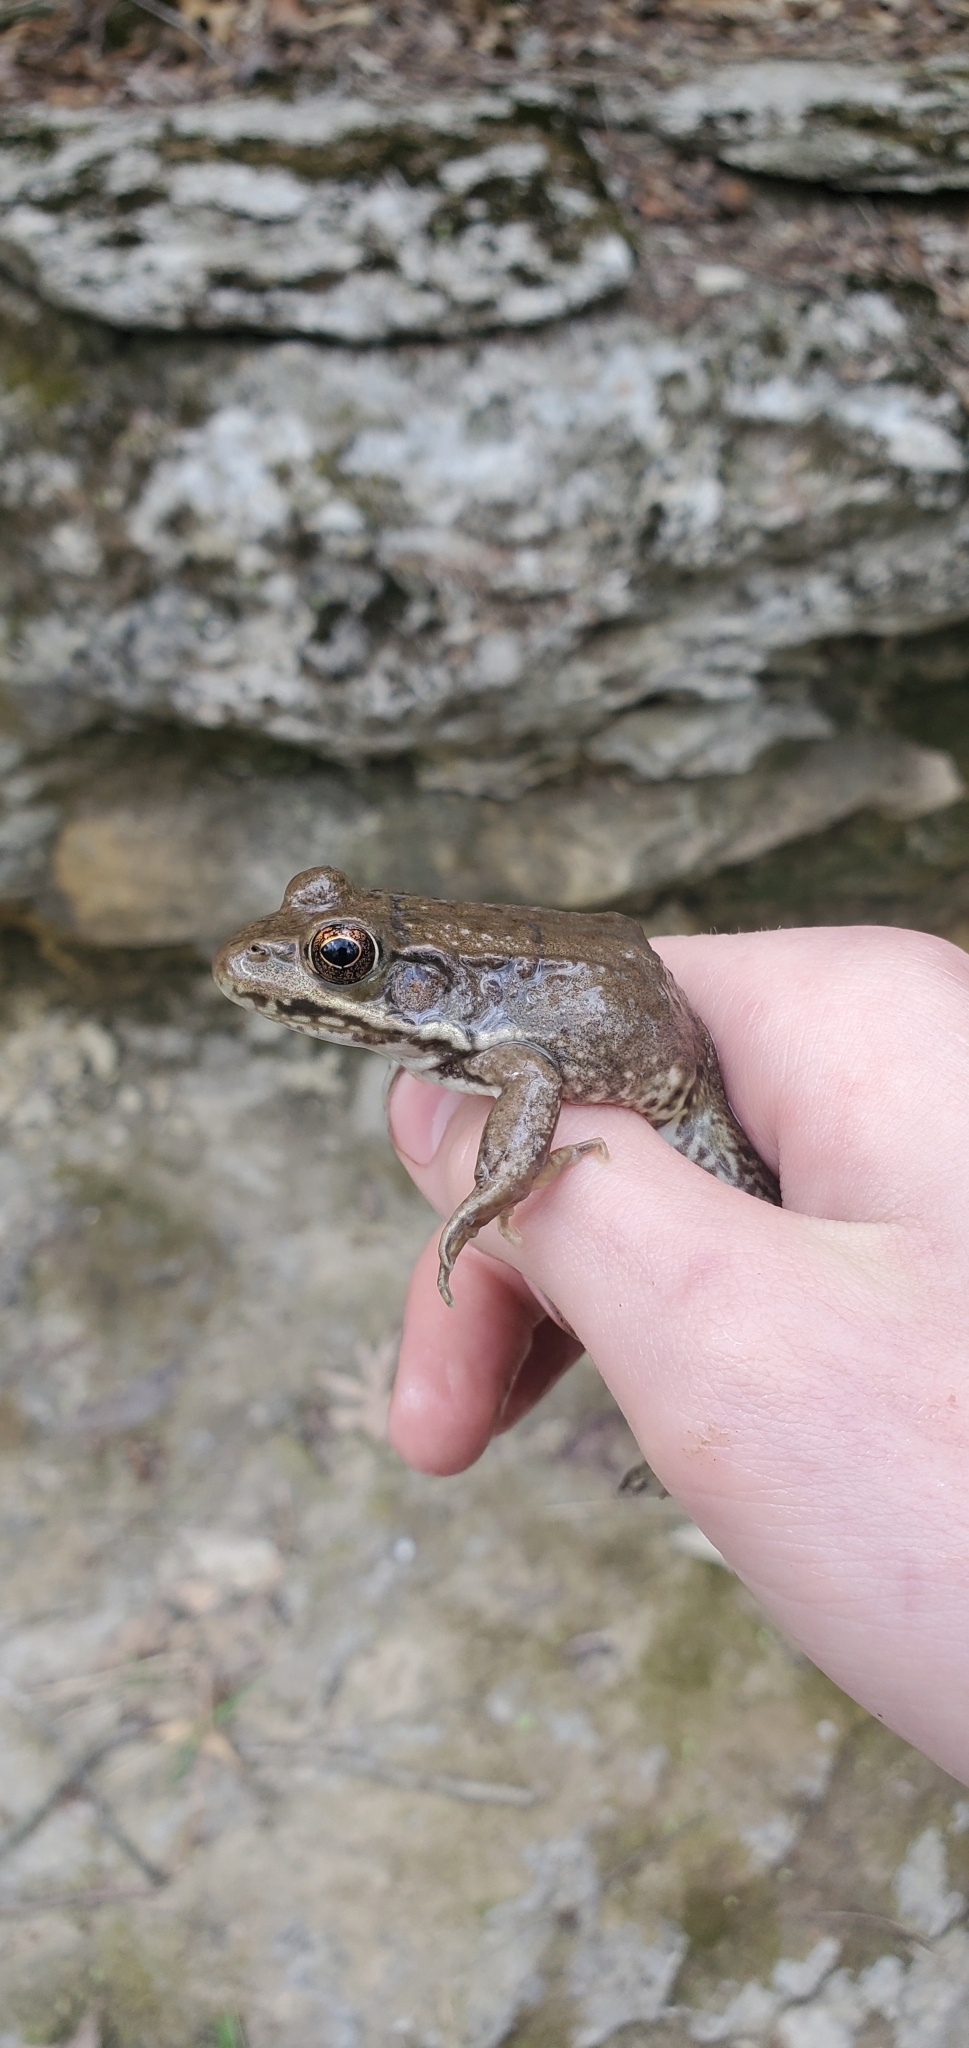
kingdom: Animalia
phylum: Chordata
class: Amphibia
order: Anura
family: Ranidae
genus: Lithobates
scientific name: Lithobates clamitans
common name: Green frog
